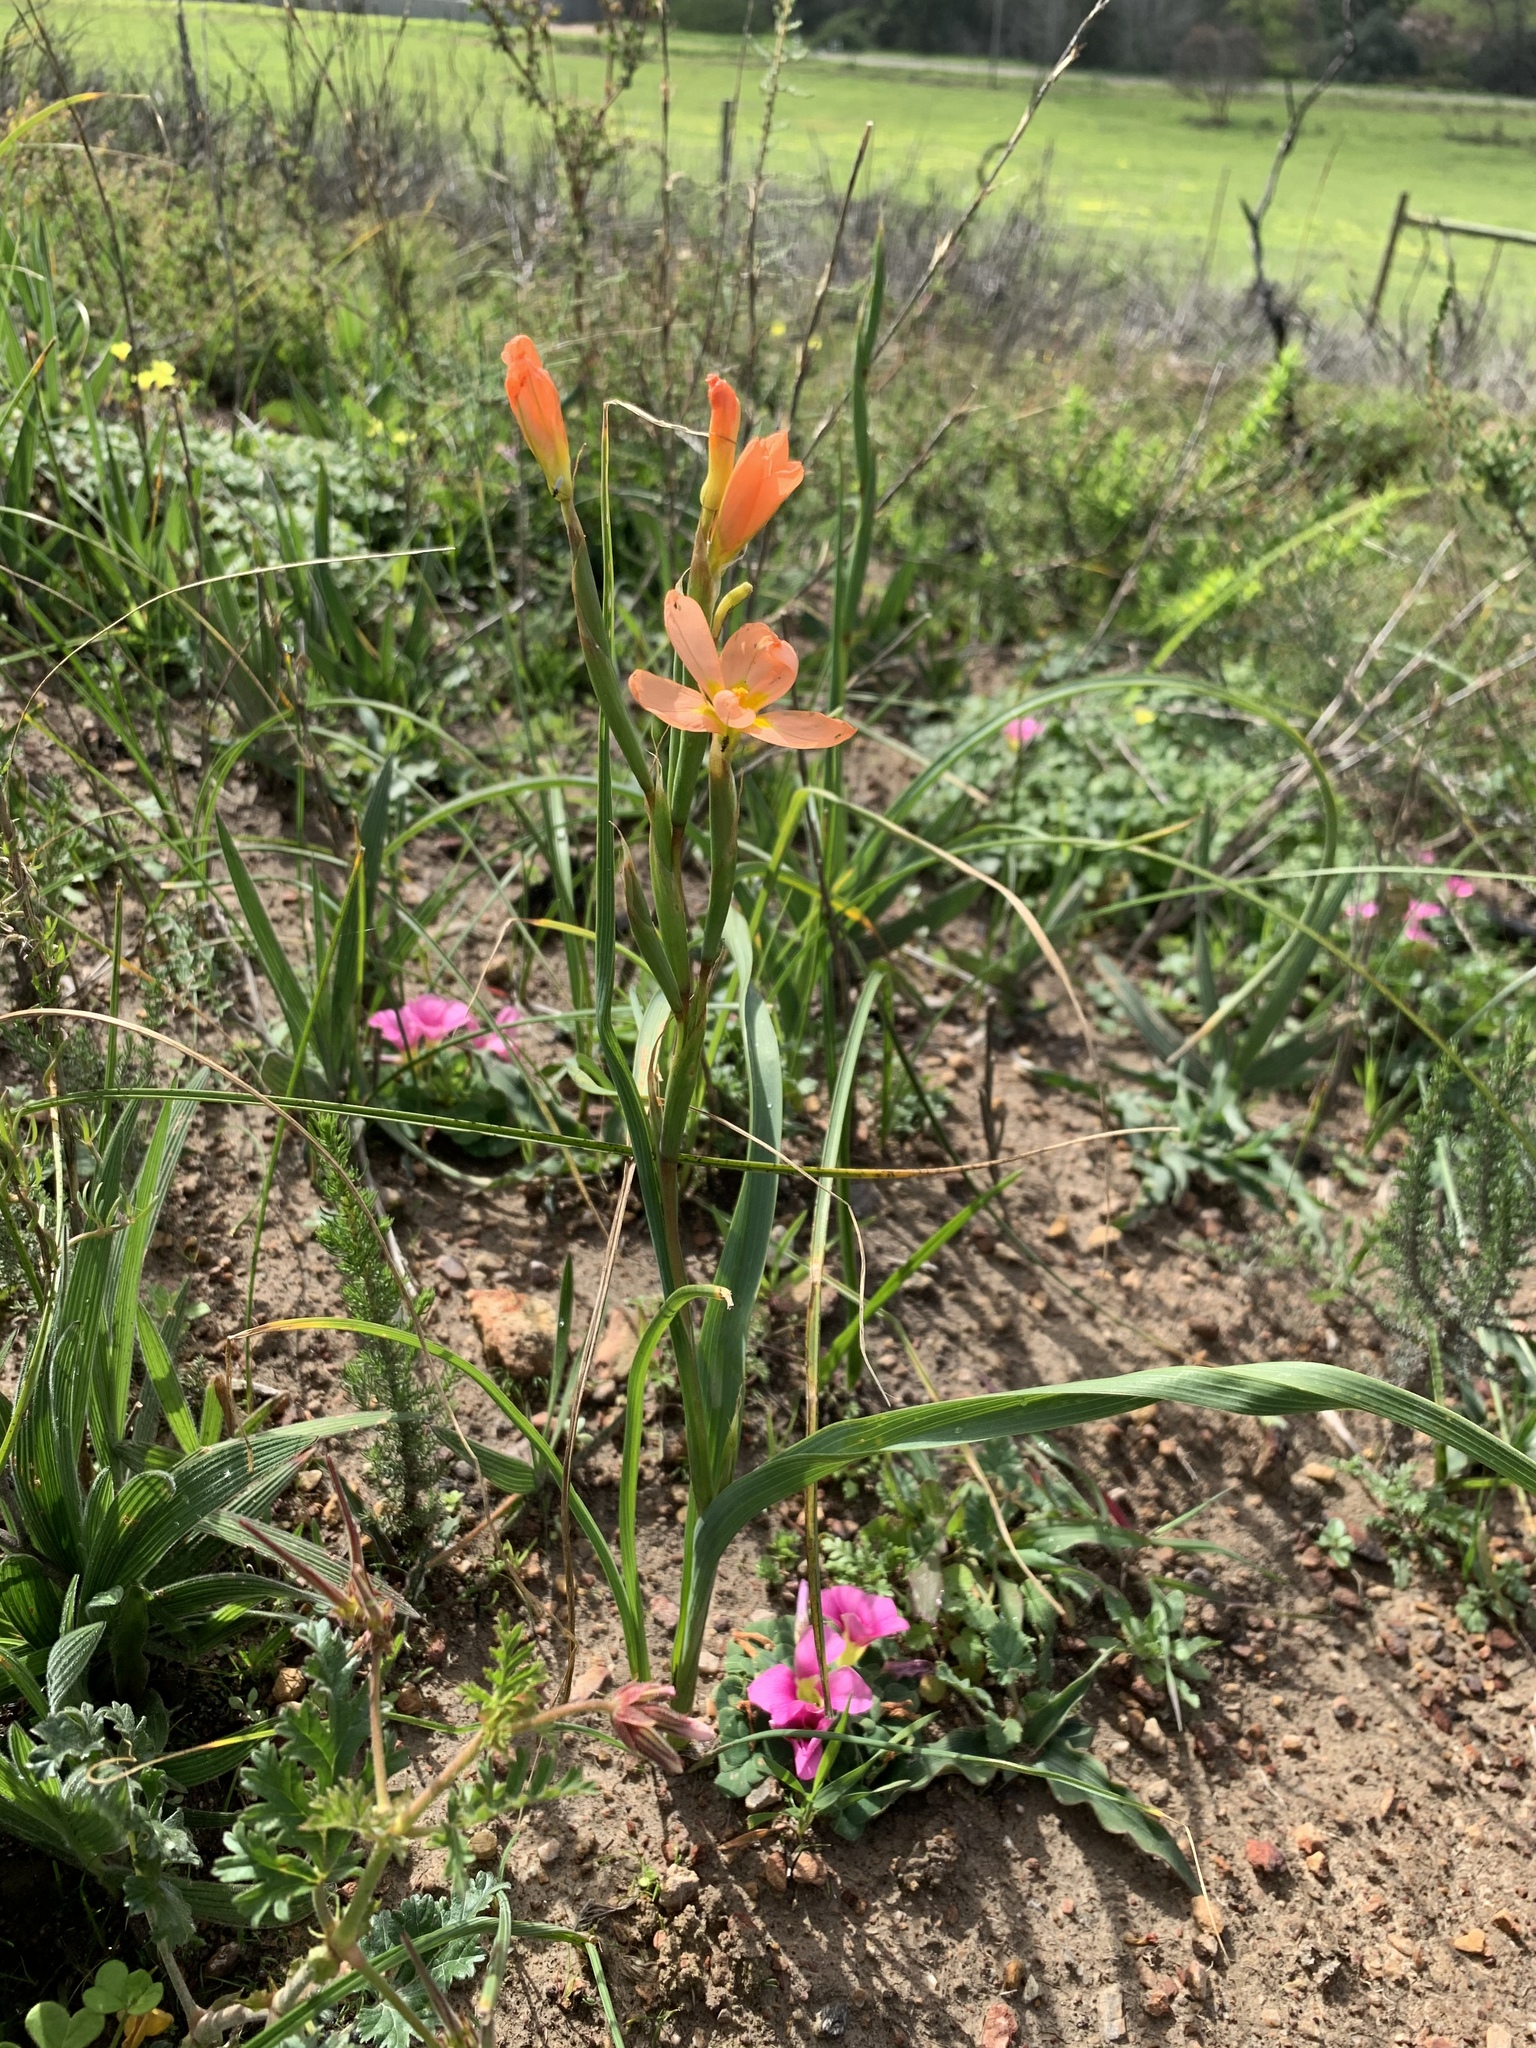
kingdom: Plantae
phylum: Tracheophyta
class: Liliopsida
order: Asparagales
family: Iridaceae
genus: Moraea
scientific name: Moraea miniata
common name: Two-leaf cape-tulip
